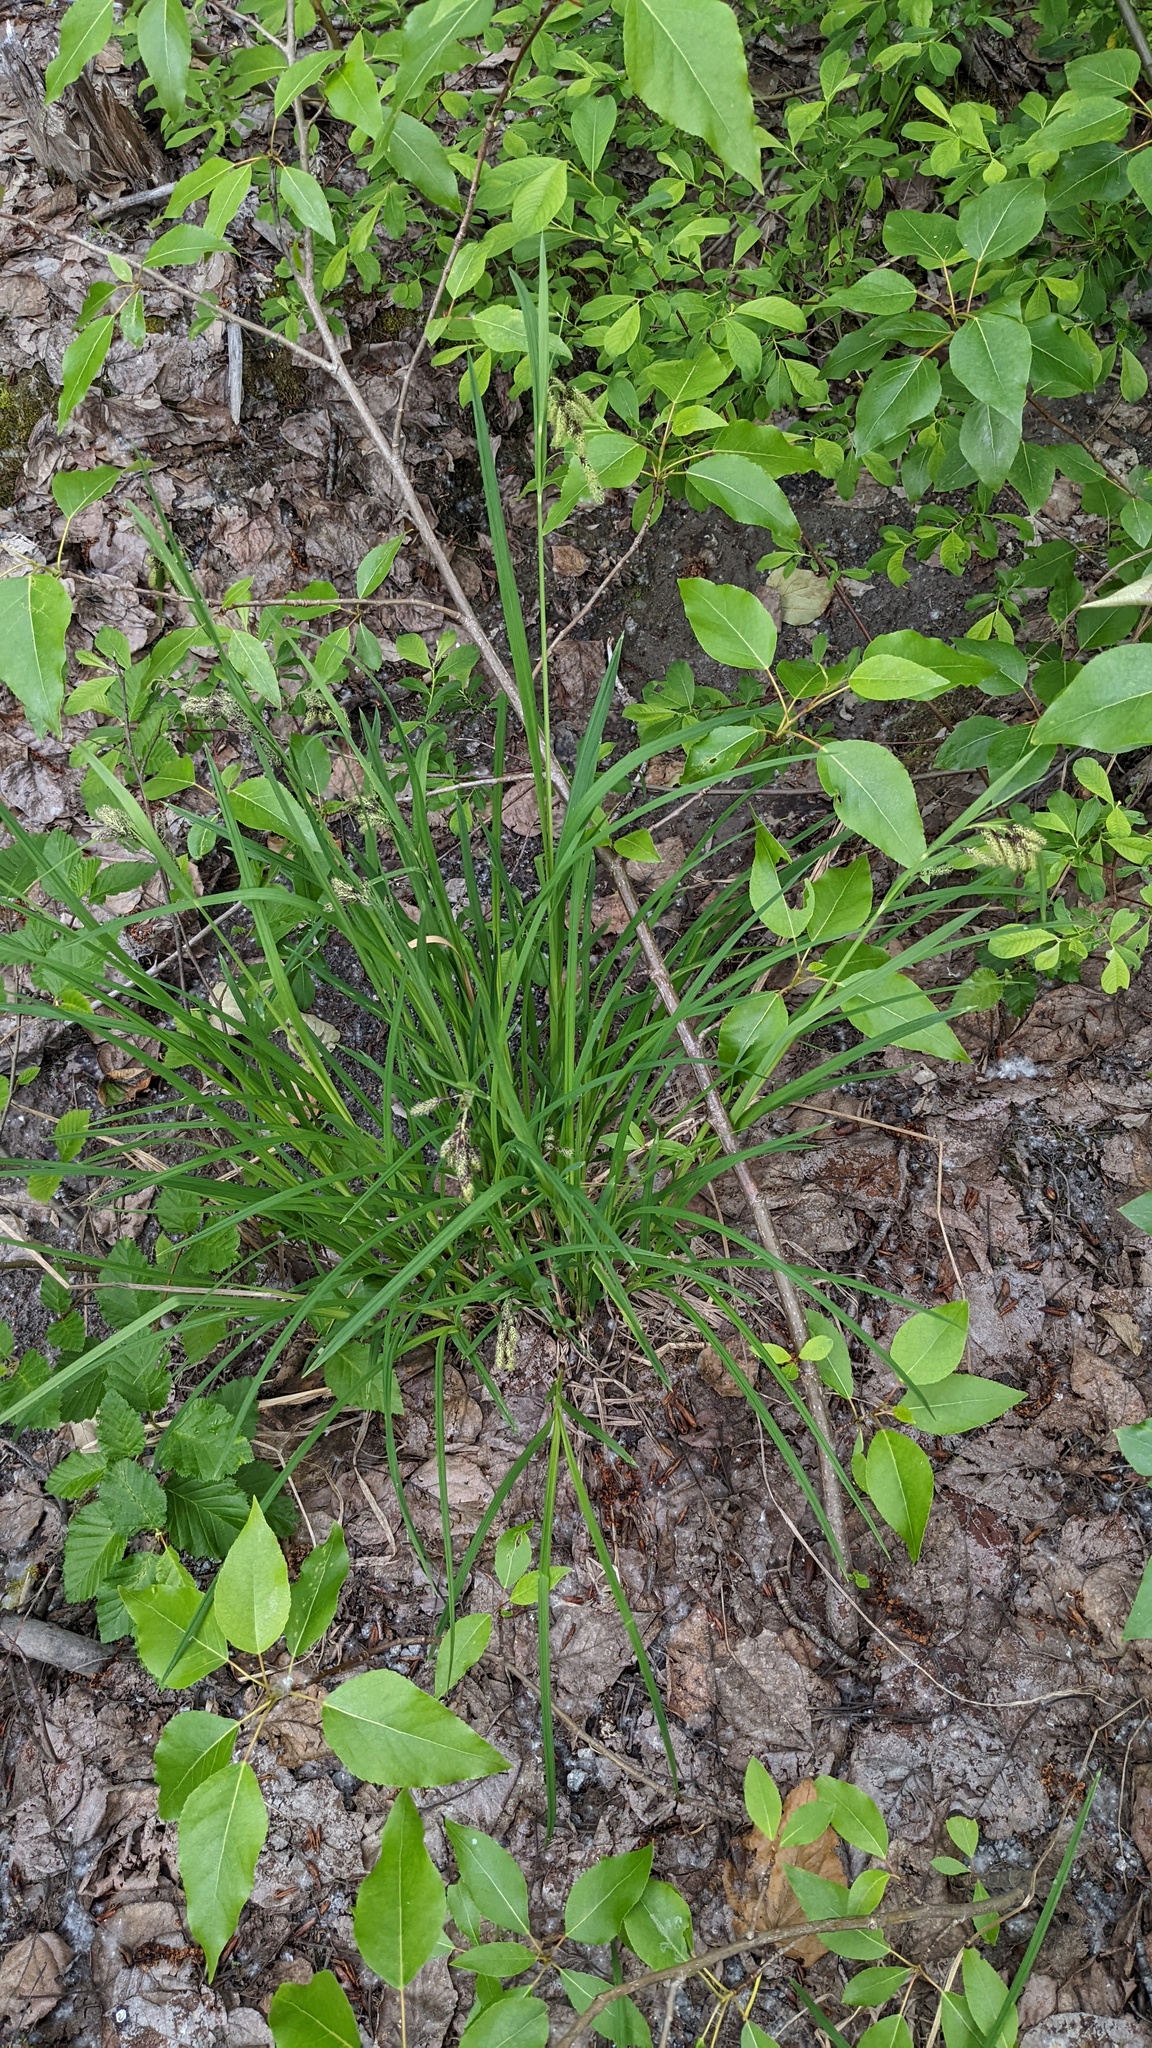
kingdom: Plantae
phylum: Tracheophyta
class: Liliopsida
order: Poales
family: Cyperaceae
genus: Carex
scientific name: Carex mertensii
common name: Mertens' sedge
